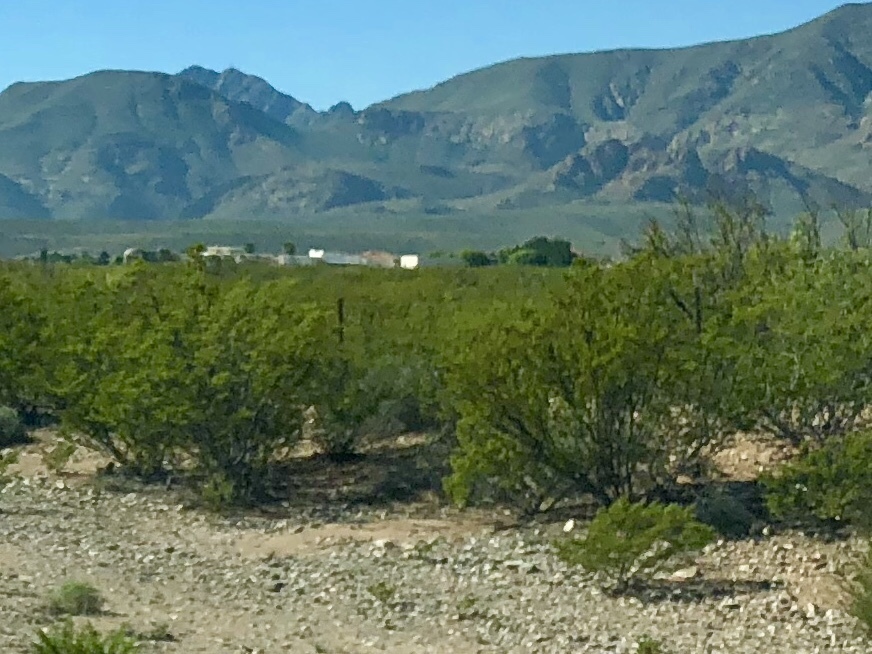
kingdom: Plantae
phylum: Tracheophyta
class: Magnoliopsida
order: Zygophyllales
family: Zygophyllaceae
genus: Larrea
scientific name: Larrea tridentata
